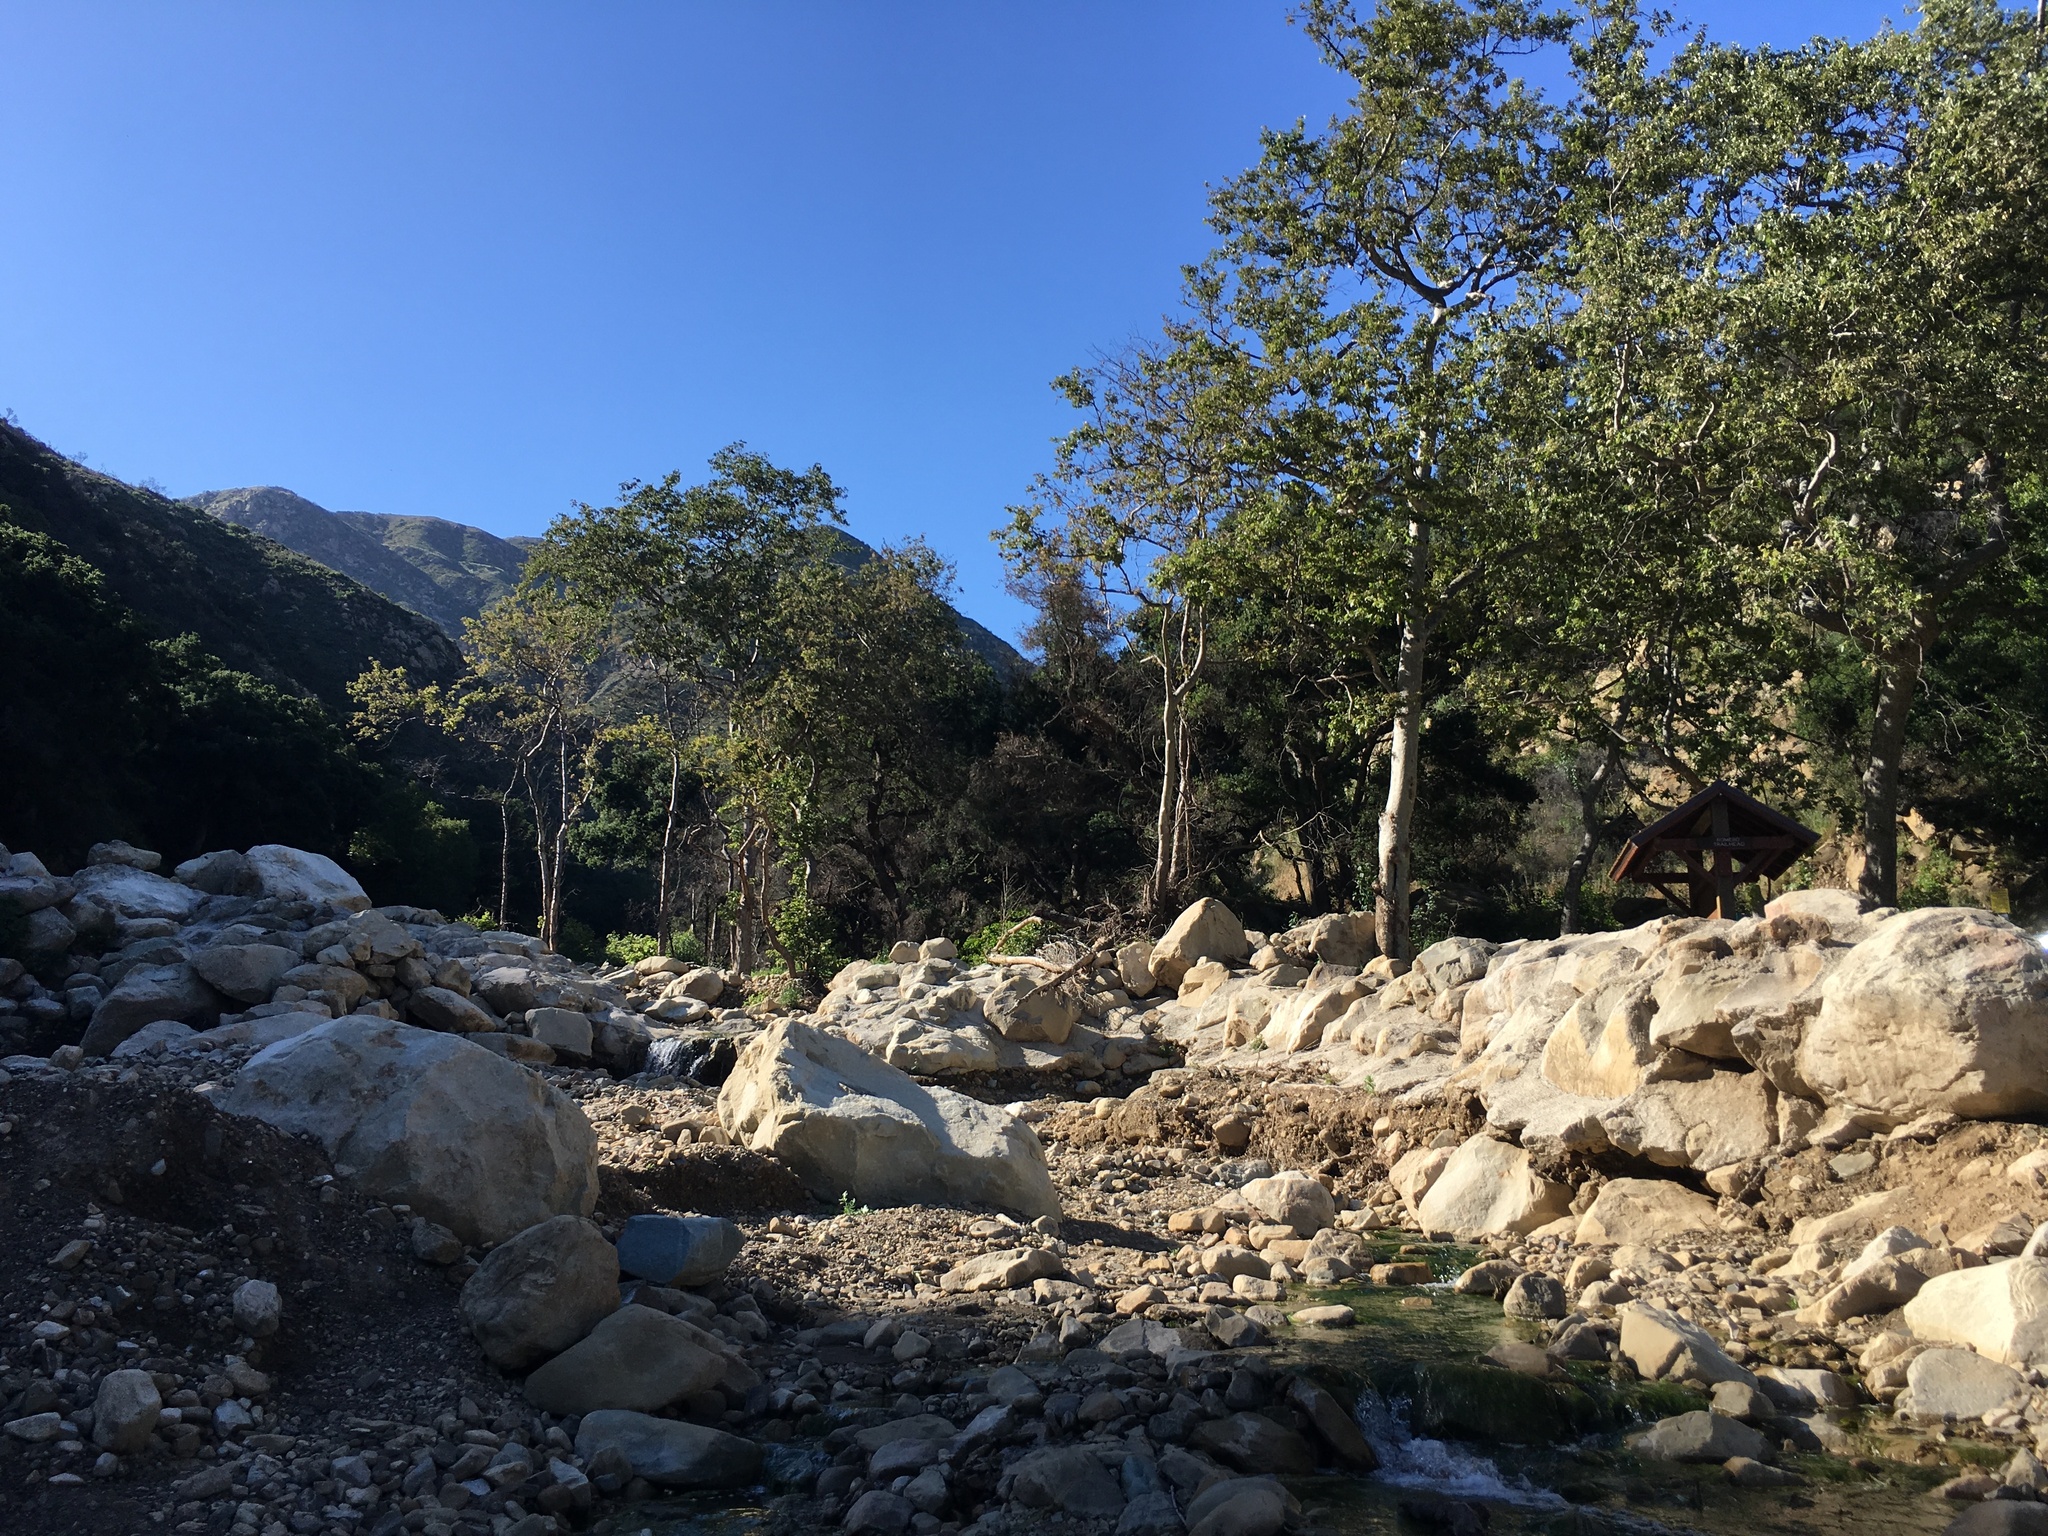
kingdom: Plantae
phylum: Tracheophyta
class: Magnoliopsida
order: Proteales
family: Platanaceae
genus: Platanus
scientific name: Platanus racemosa
